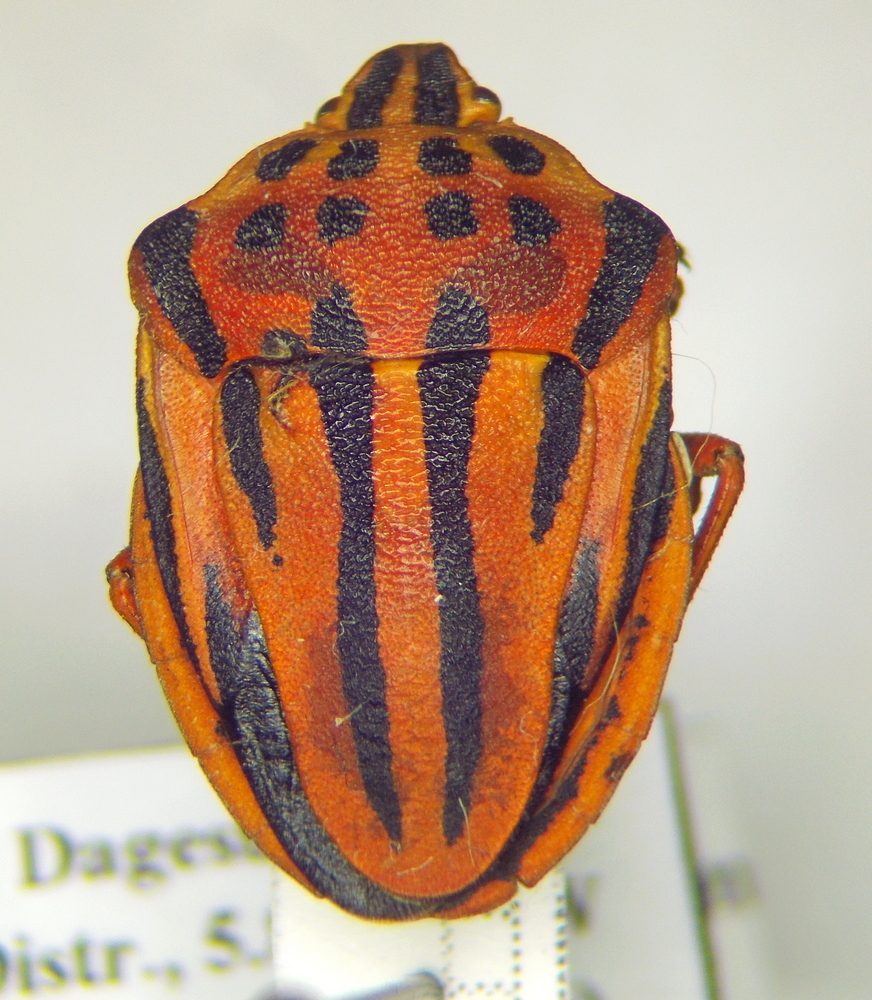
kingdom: Animalia
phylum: Arthropoda
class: Insecta
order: Hemiptera
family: Pentatomidae
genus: Graphosoma
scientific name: Graphosoma semipunctatum
